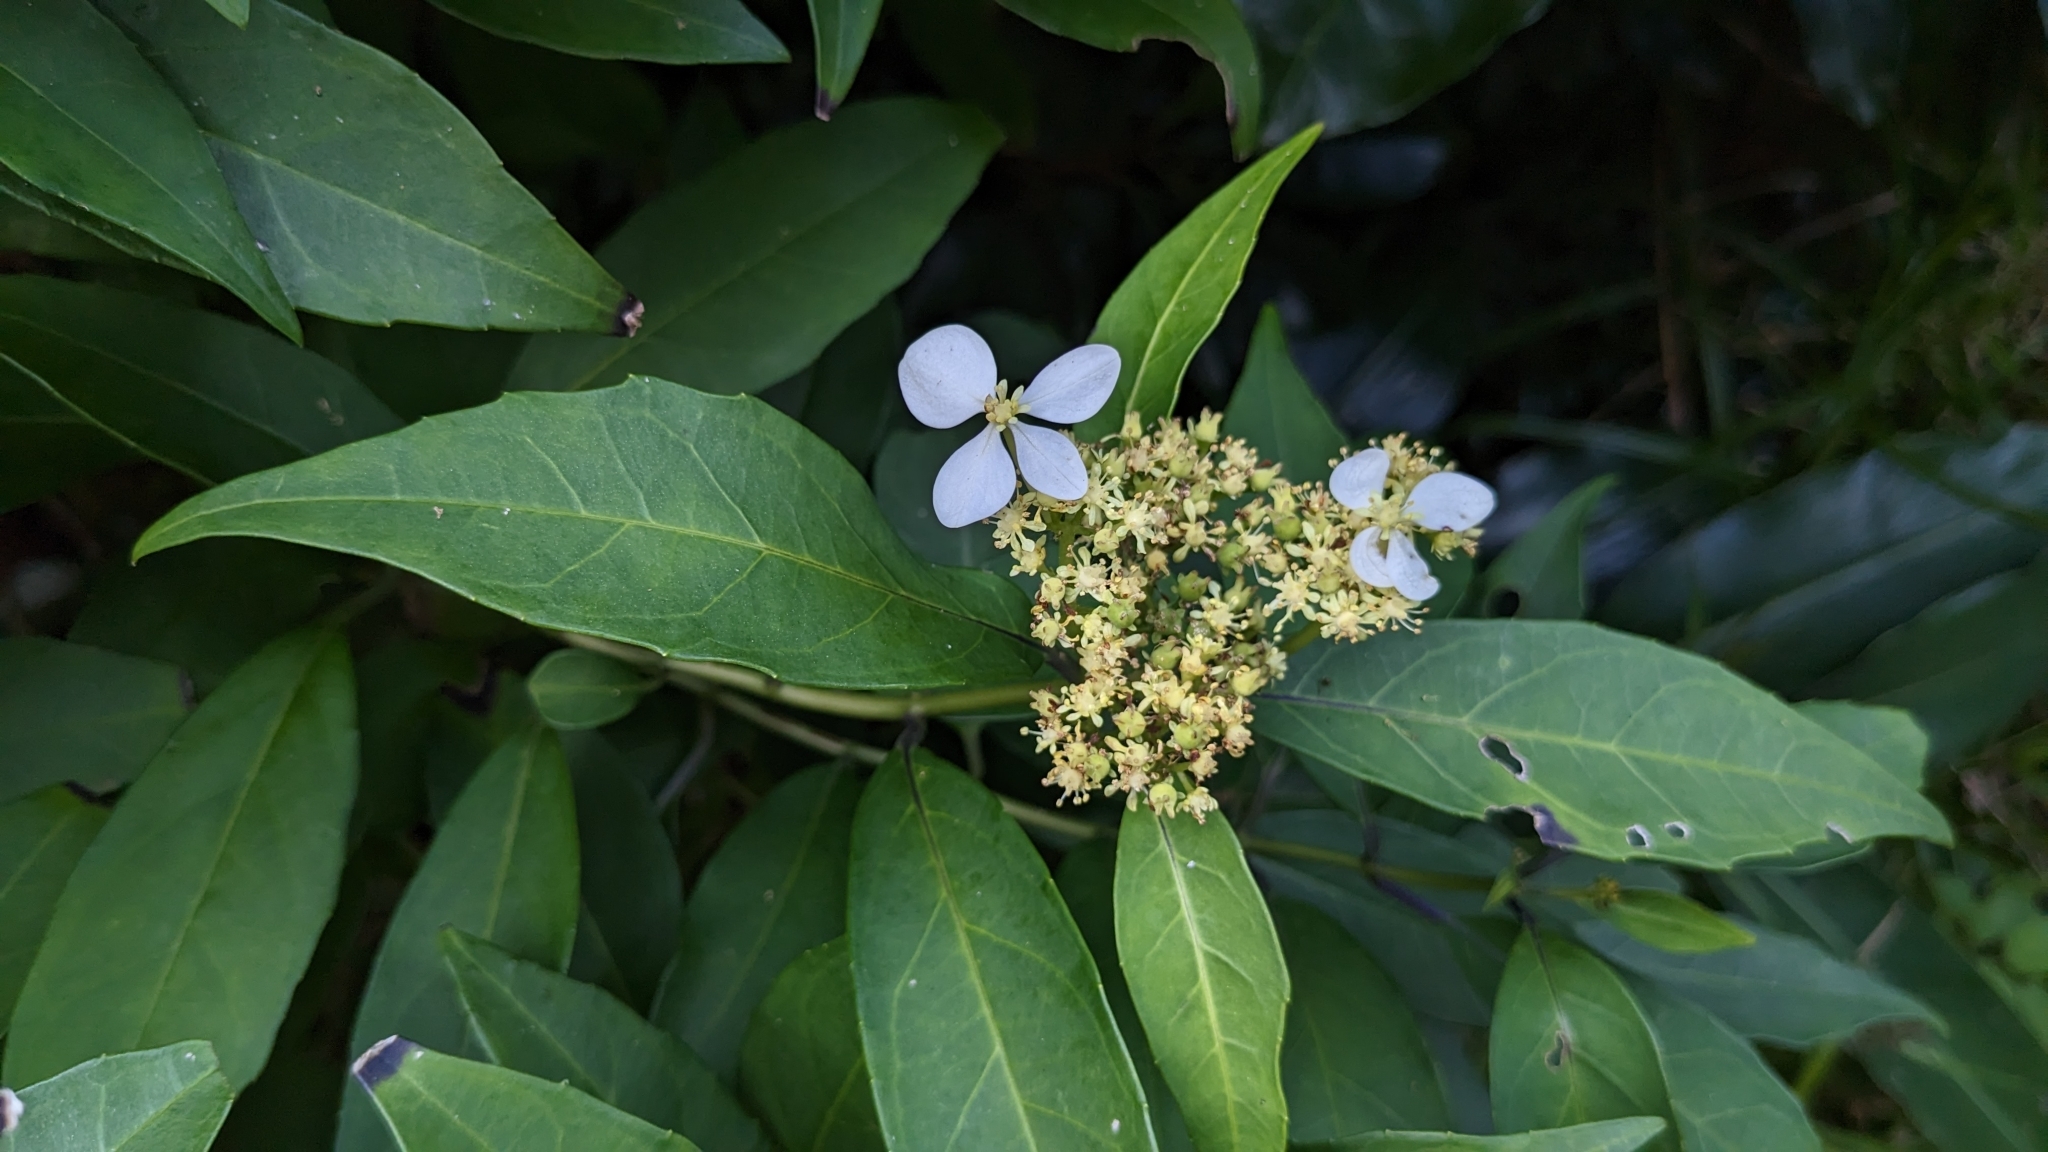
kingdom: Plantae
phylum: Tracheophyta
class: Magnoliopsida
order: Cornales
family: Hydrangeaceae
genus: Hydrangea
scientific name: Hydrangea chinensis
